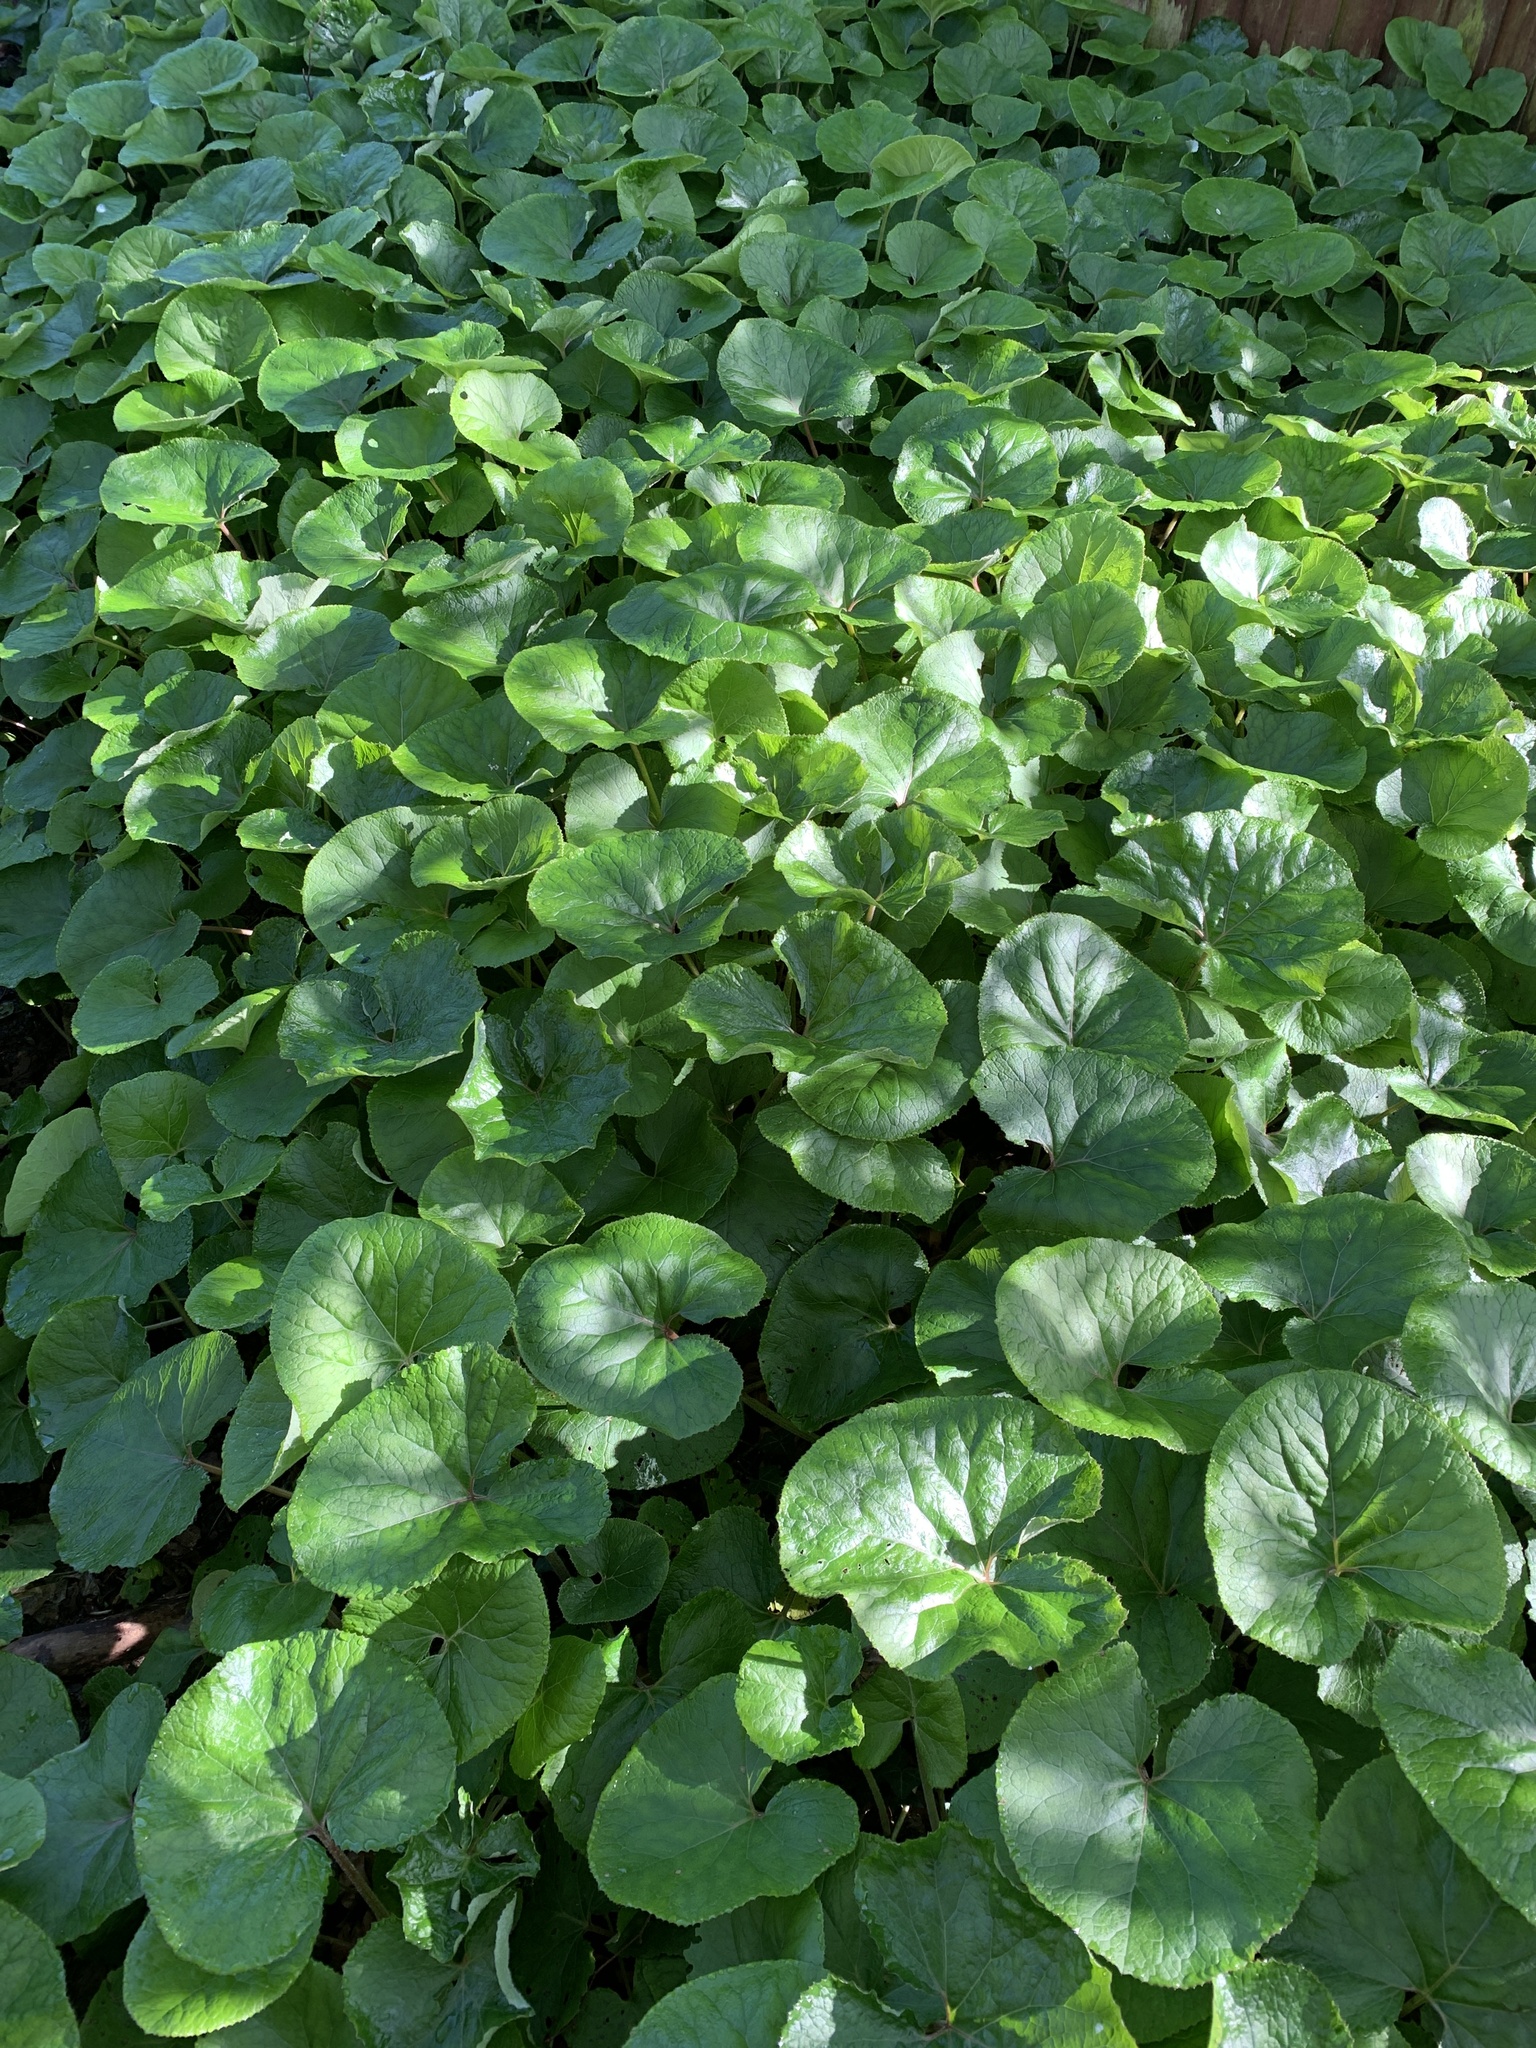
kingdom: Plantae
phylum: Tracheophyta
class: Magnoliopsida
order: Asterales
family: Asteraceae
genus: Petasites
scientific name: Petasites pyrenaicus
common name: Winter heliotrope
